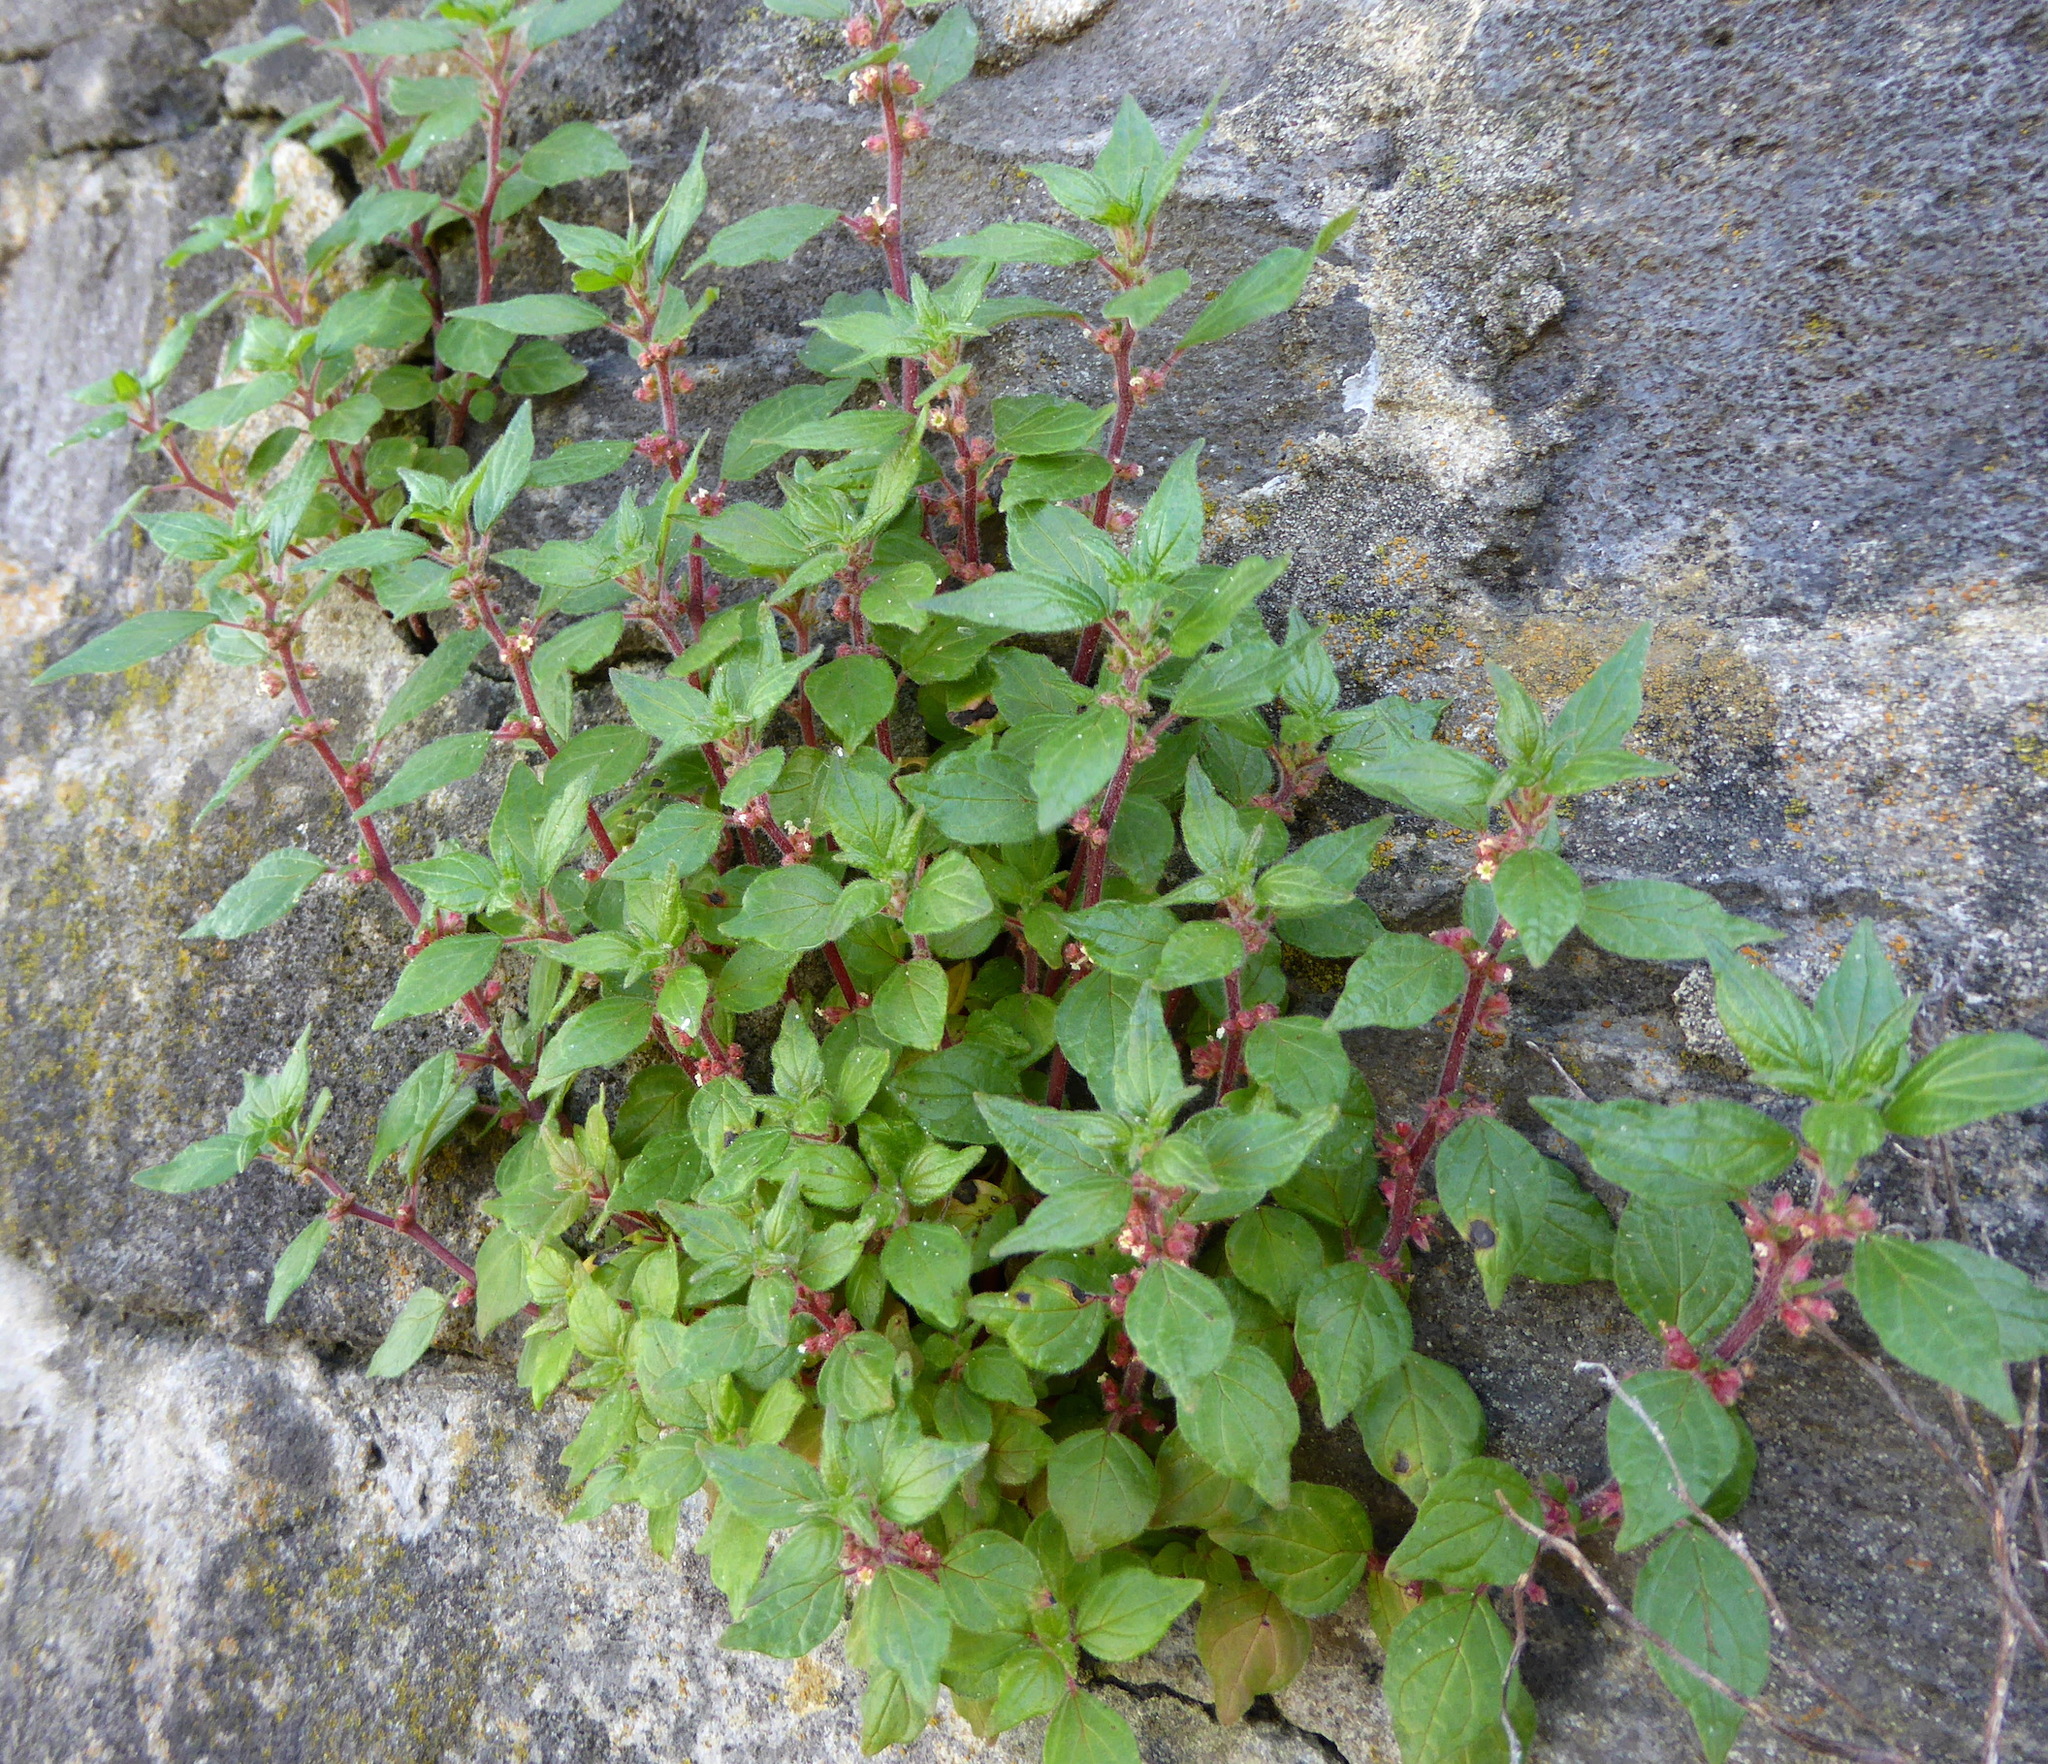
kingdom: Plantae
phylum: Tracheophyta
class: Magnoliopsida
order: Rosales
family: Urticaceae
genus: Parietaria
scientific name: Parietaria judaica
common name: Pellitory-of-the-wall
